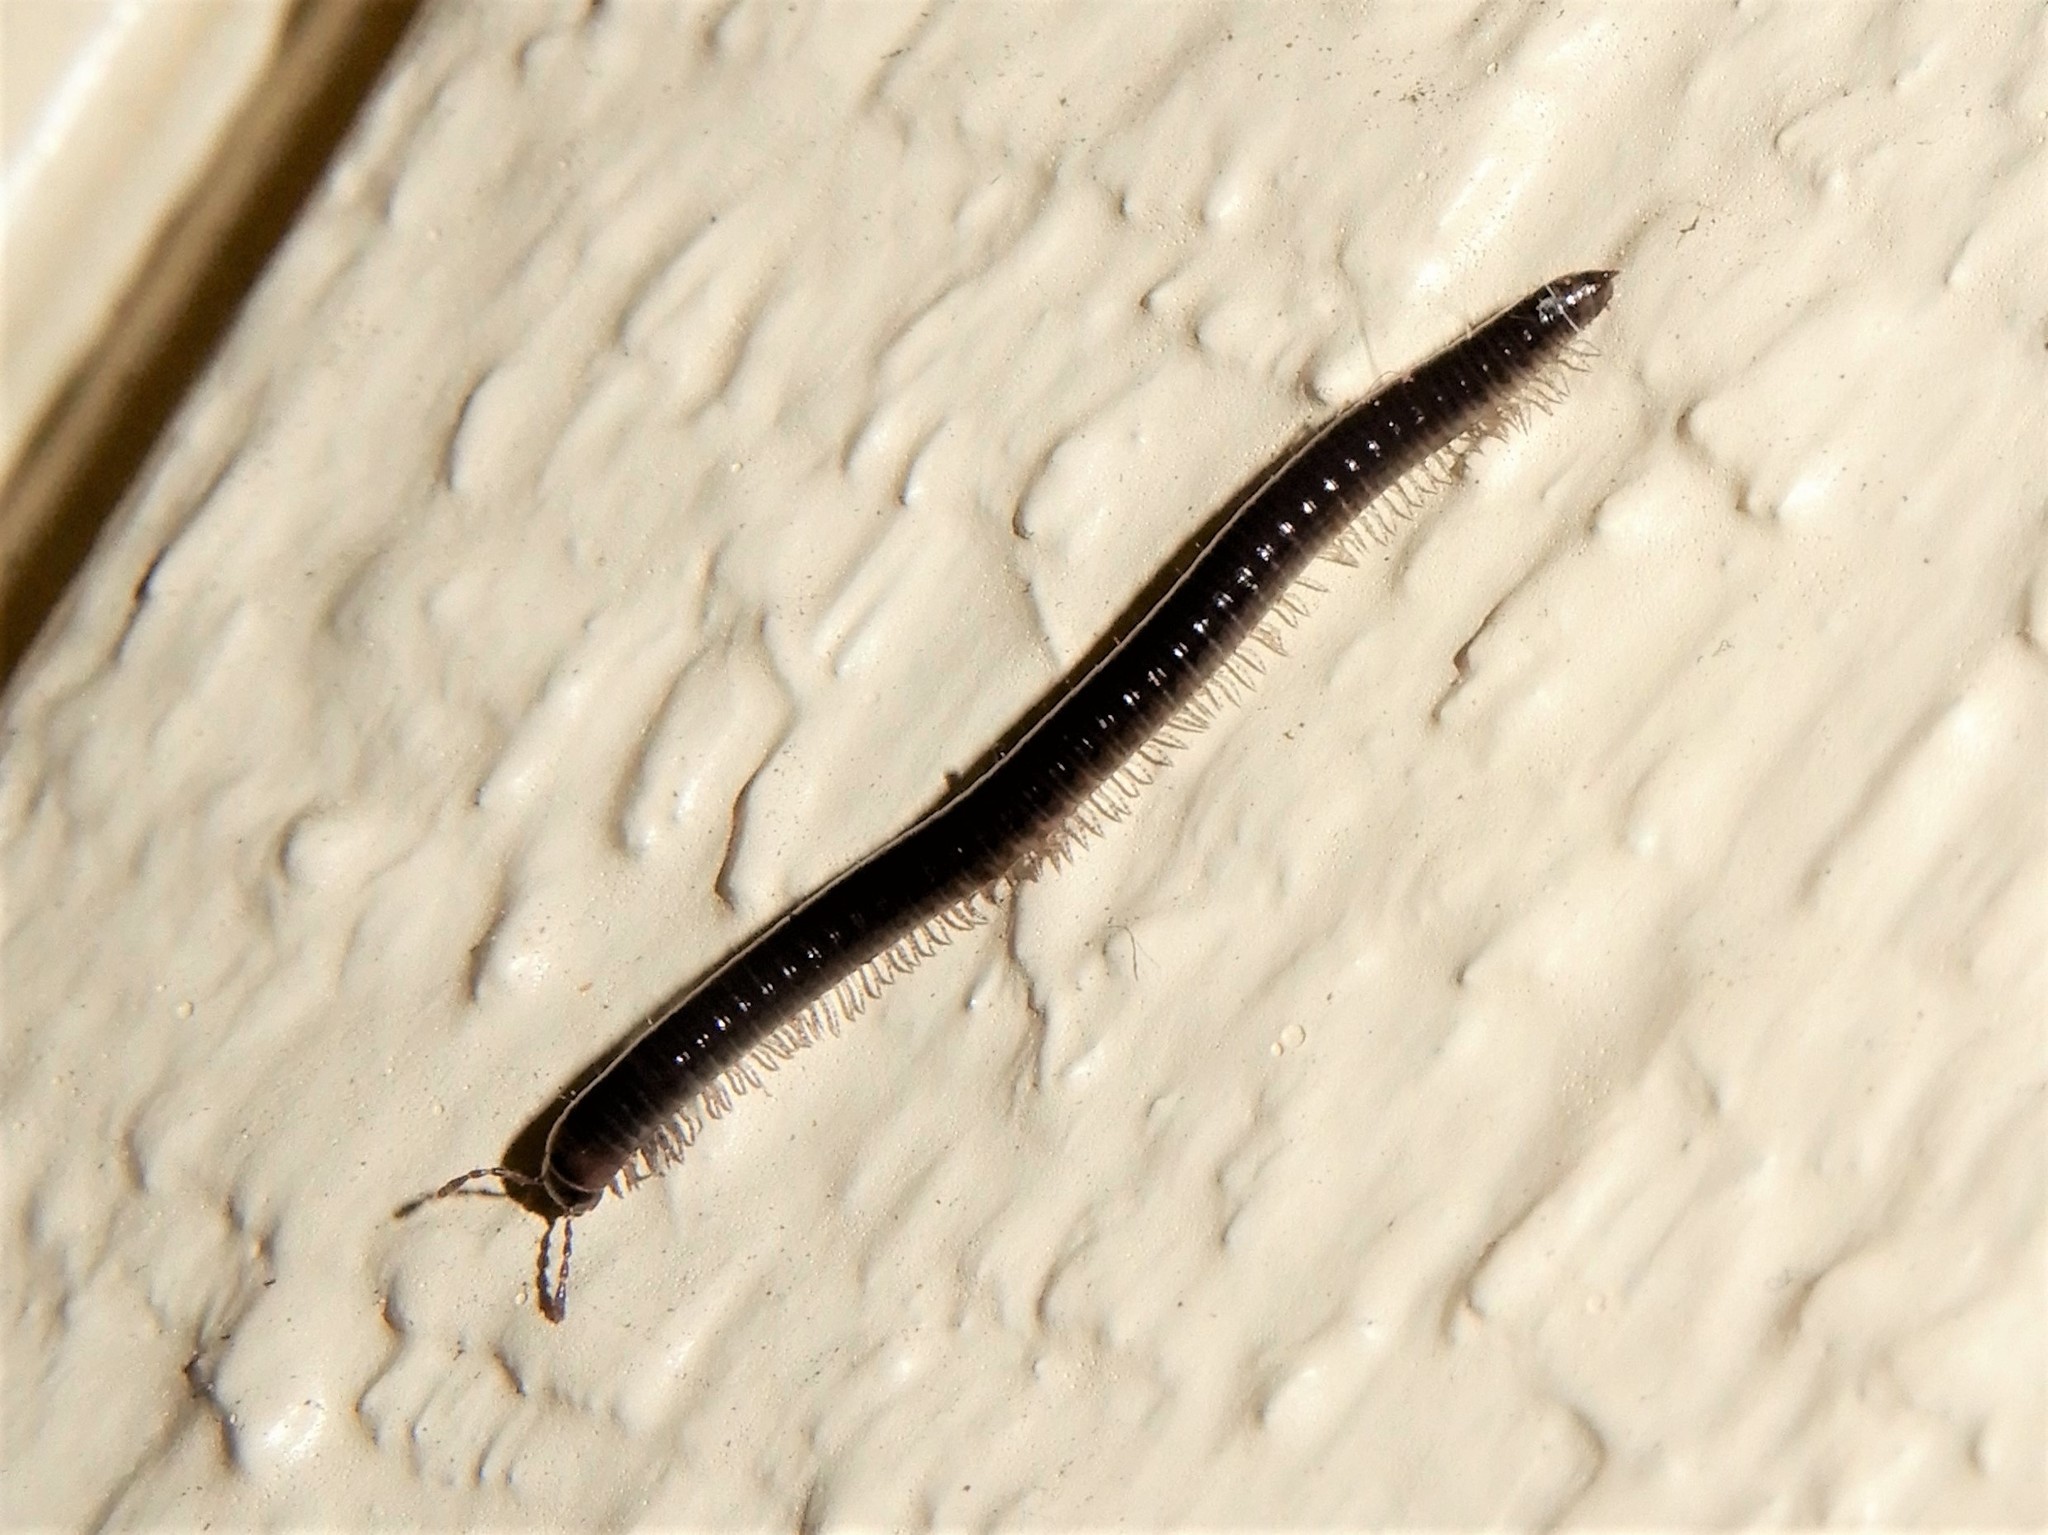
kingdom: Animalia
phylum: Arthropoda
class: Diplopoda
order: Julida
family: Julidae
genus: Ophyiulus
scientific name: Ophyiulus pilosus
